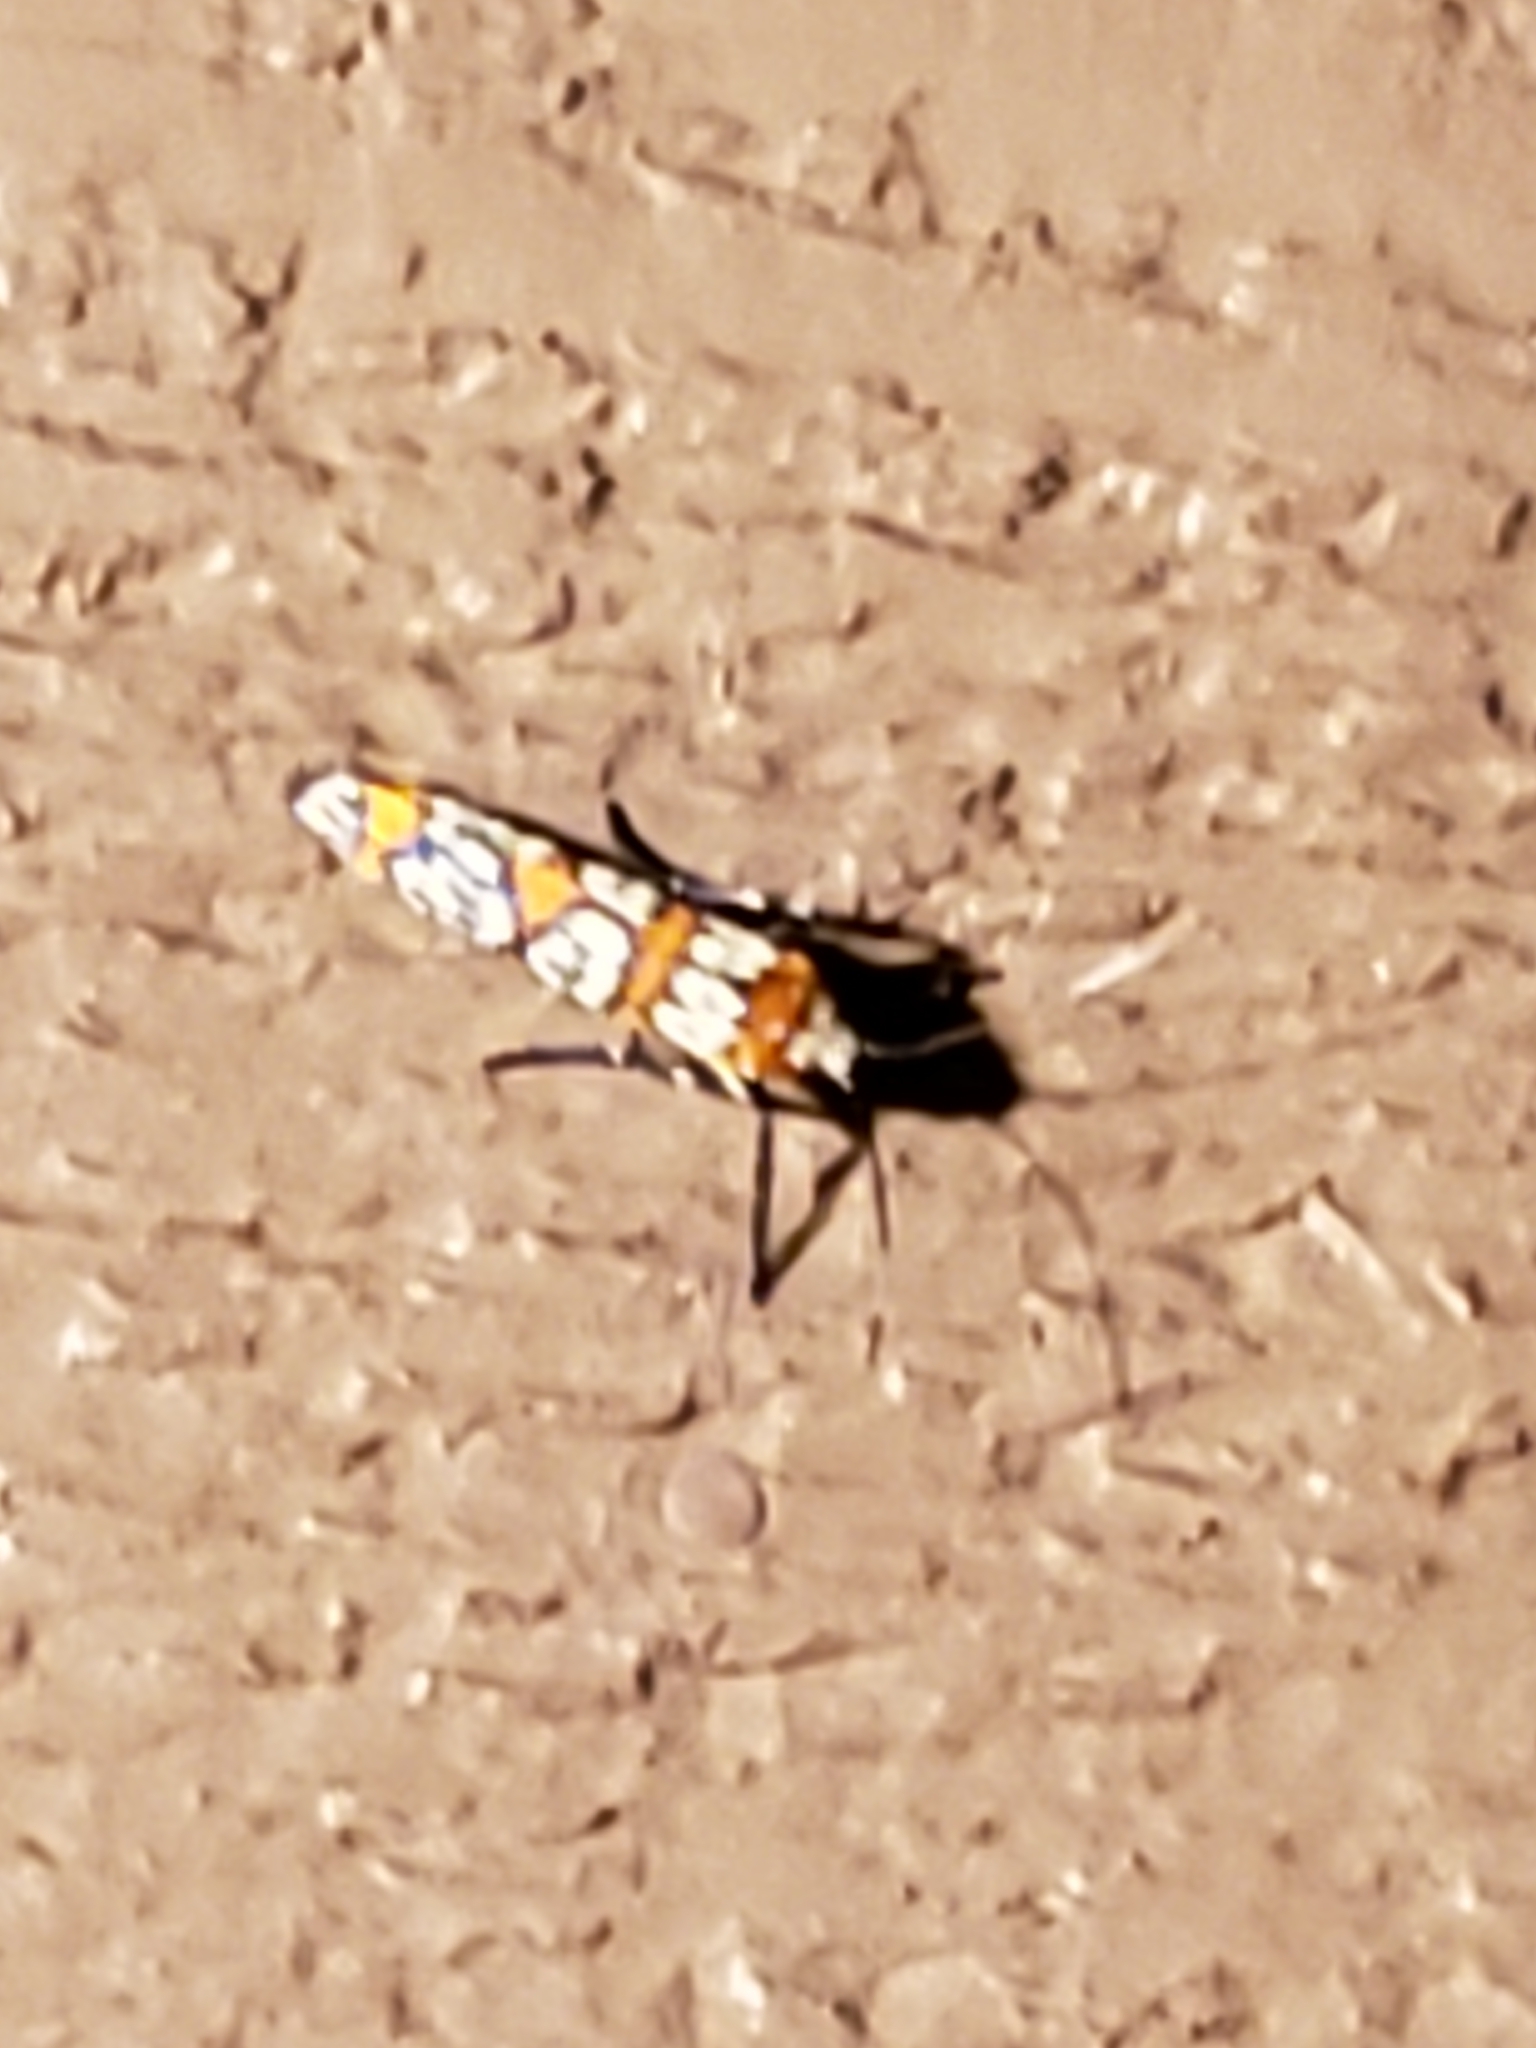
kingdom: Animalia
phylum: Arthropoda
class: Insecta
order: Lepidoptera
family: Attevidae
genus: Atteva
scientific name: Atteva punctella
